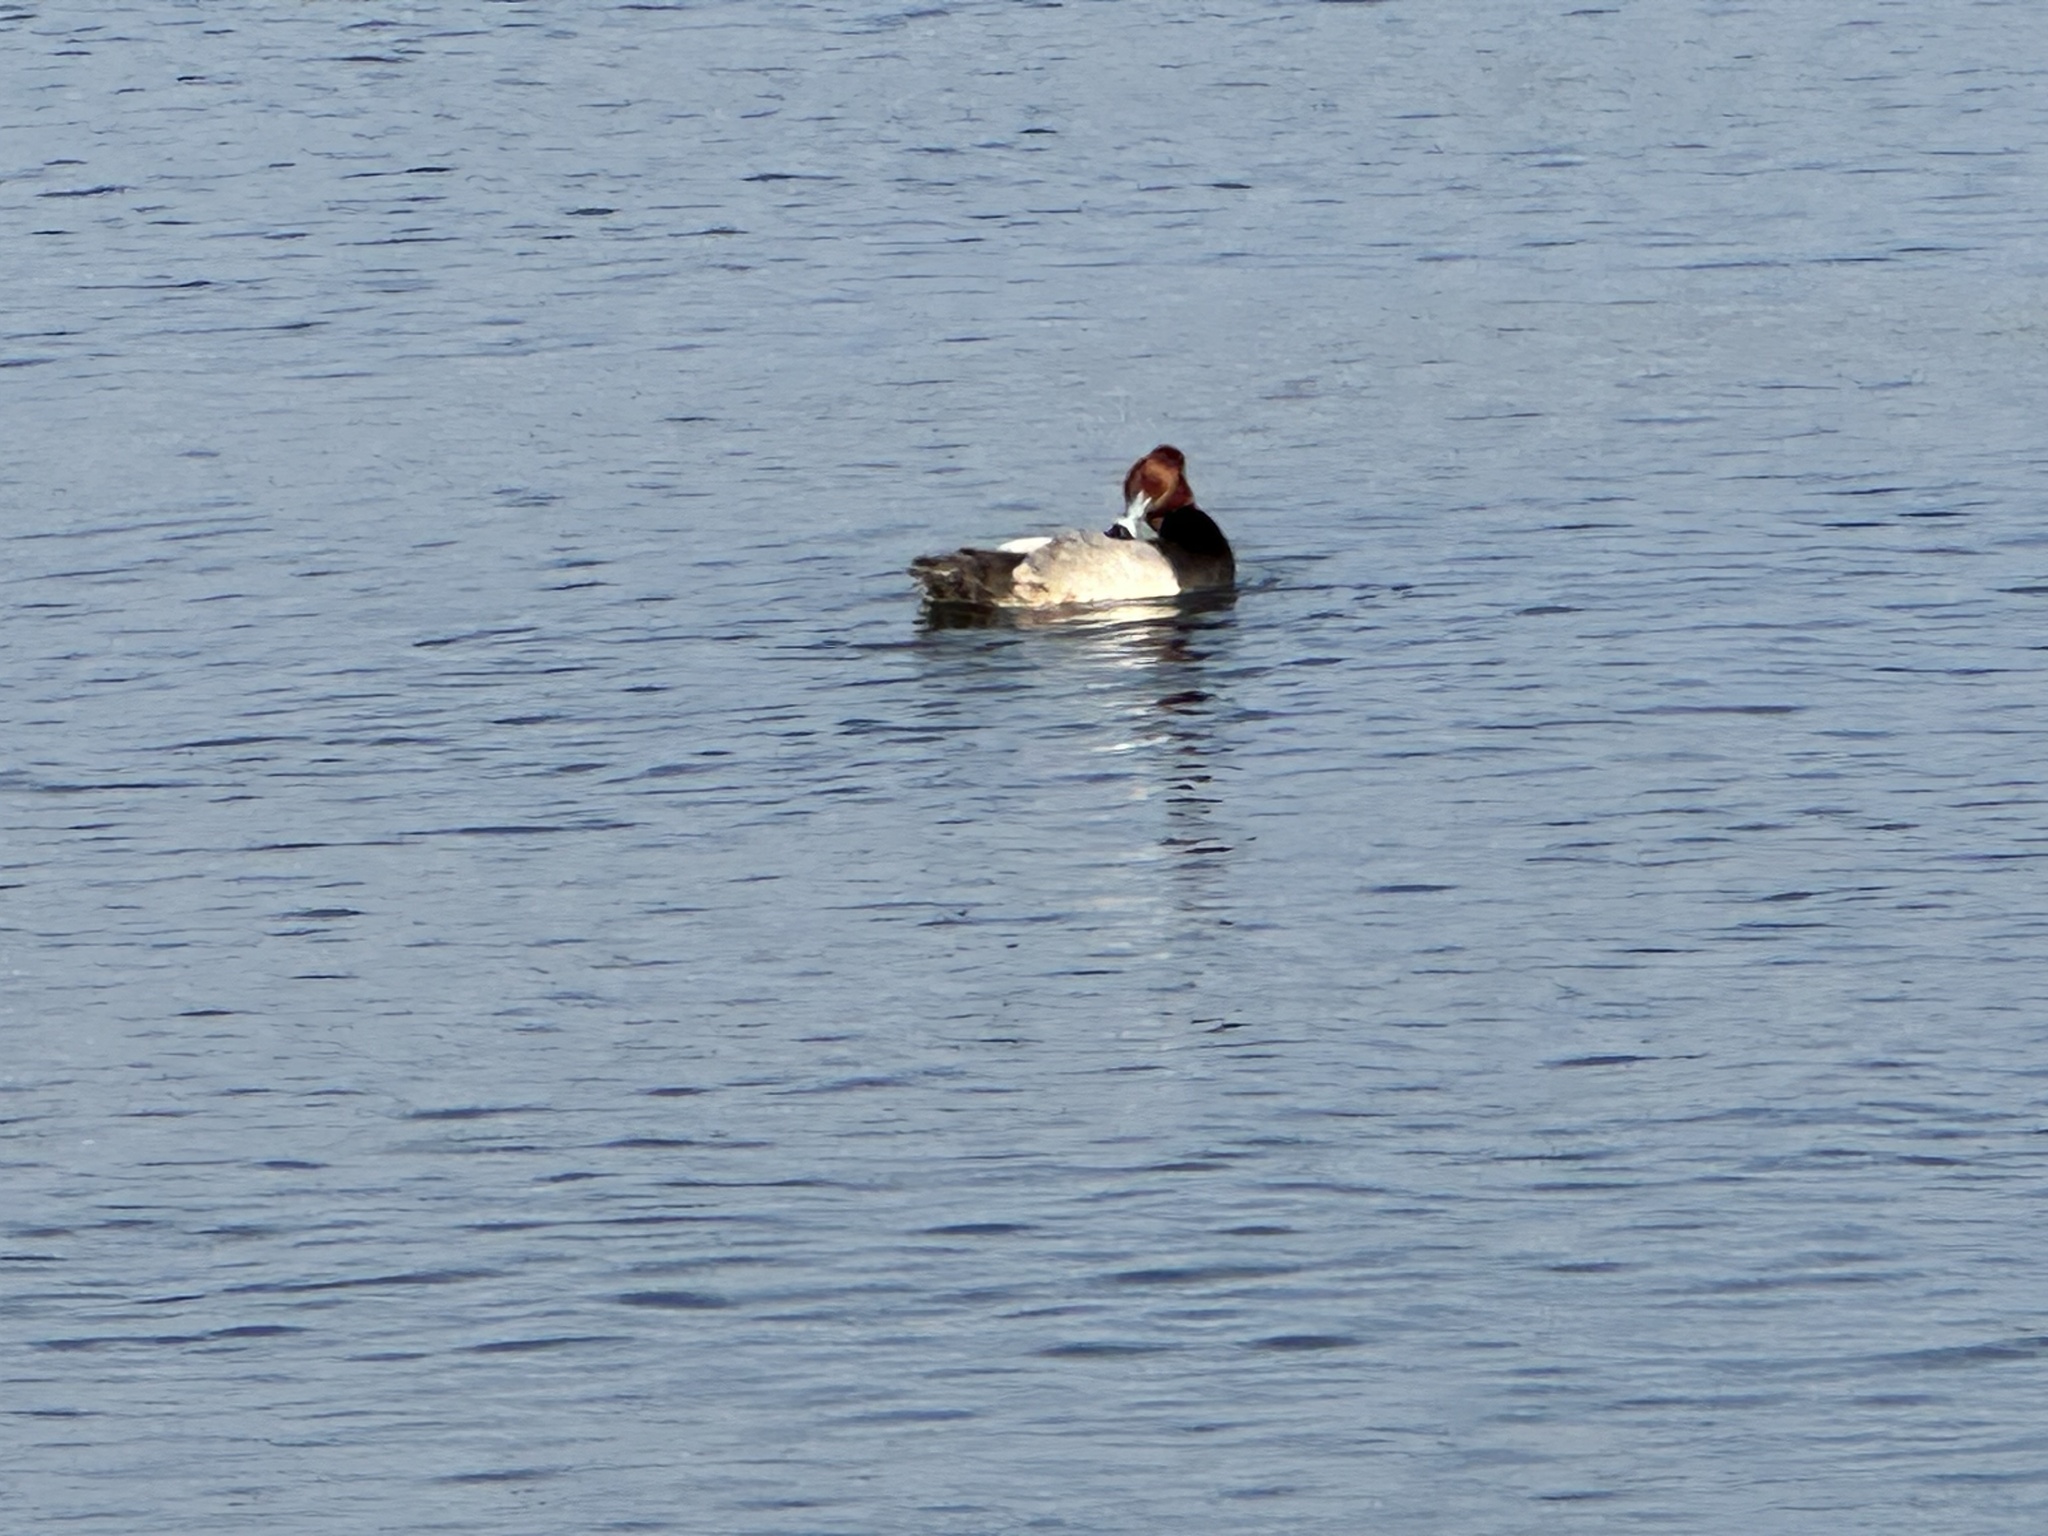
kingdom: Animalia
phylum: Chordata
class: Aves
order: Anseriformes
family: Anatidae
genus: Aythya
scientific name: Aythya americana
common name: Redhead
